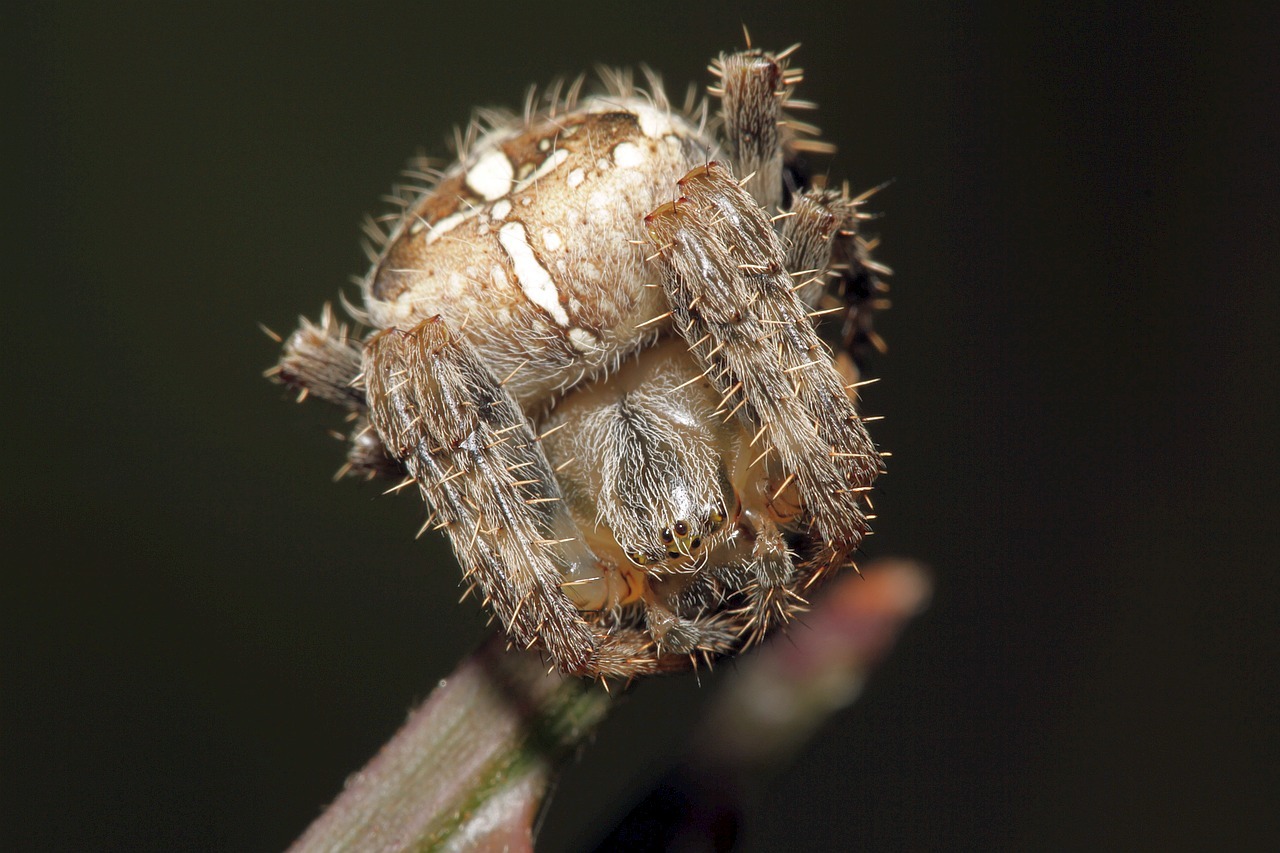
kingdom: Animalia
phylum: Arthropoda
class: Arachnida
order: Araneae
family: Araneidae
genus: Araneus
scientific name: Araneus diadematus
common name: Cross orbweaver
